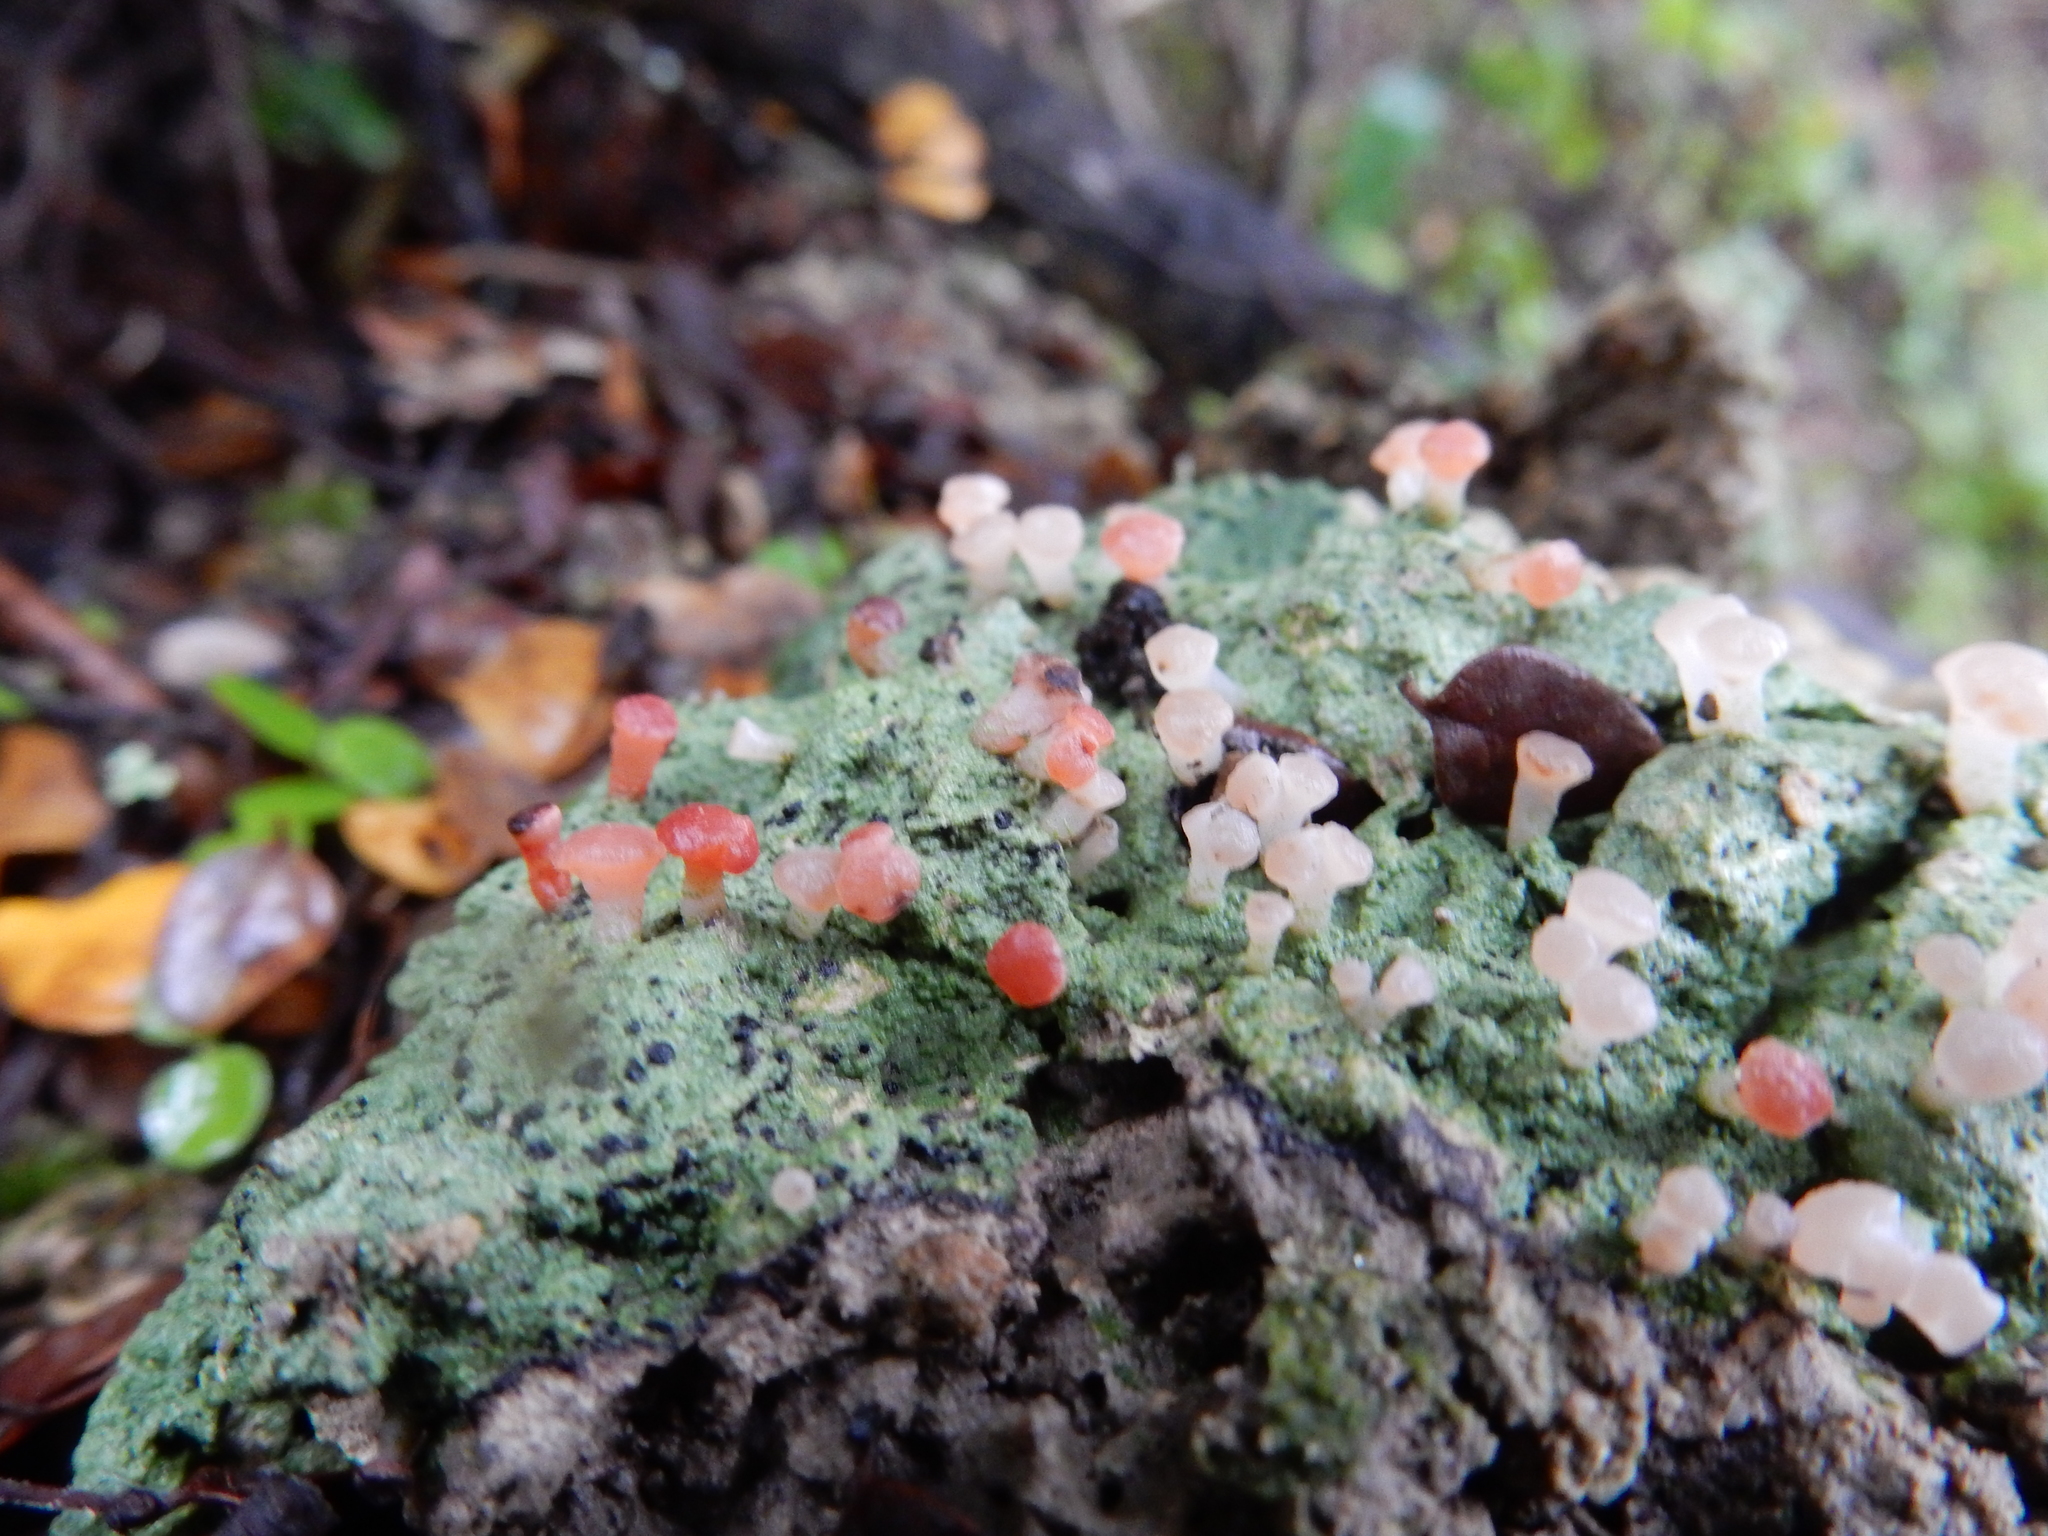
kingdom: Fungi
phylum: Ascomycota
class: Lecanoromycetes
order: Baeomycetales
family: Baeomycetaceae
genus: Baeomyces
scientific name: Baeomyces heteromorphus
